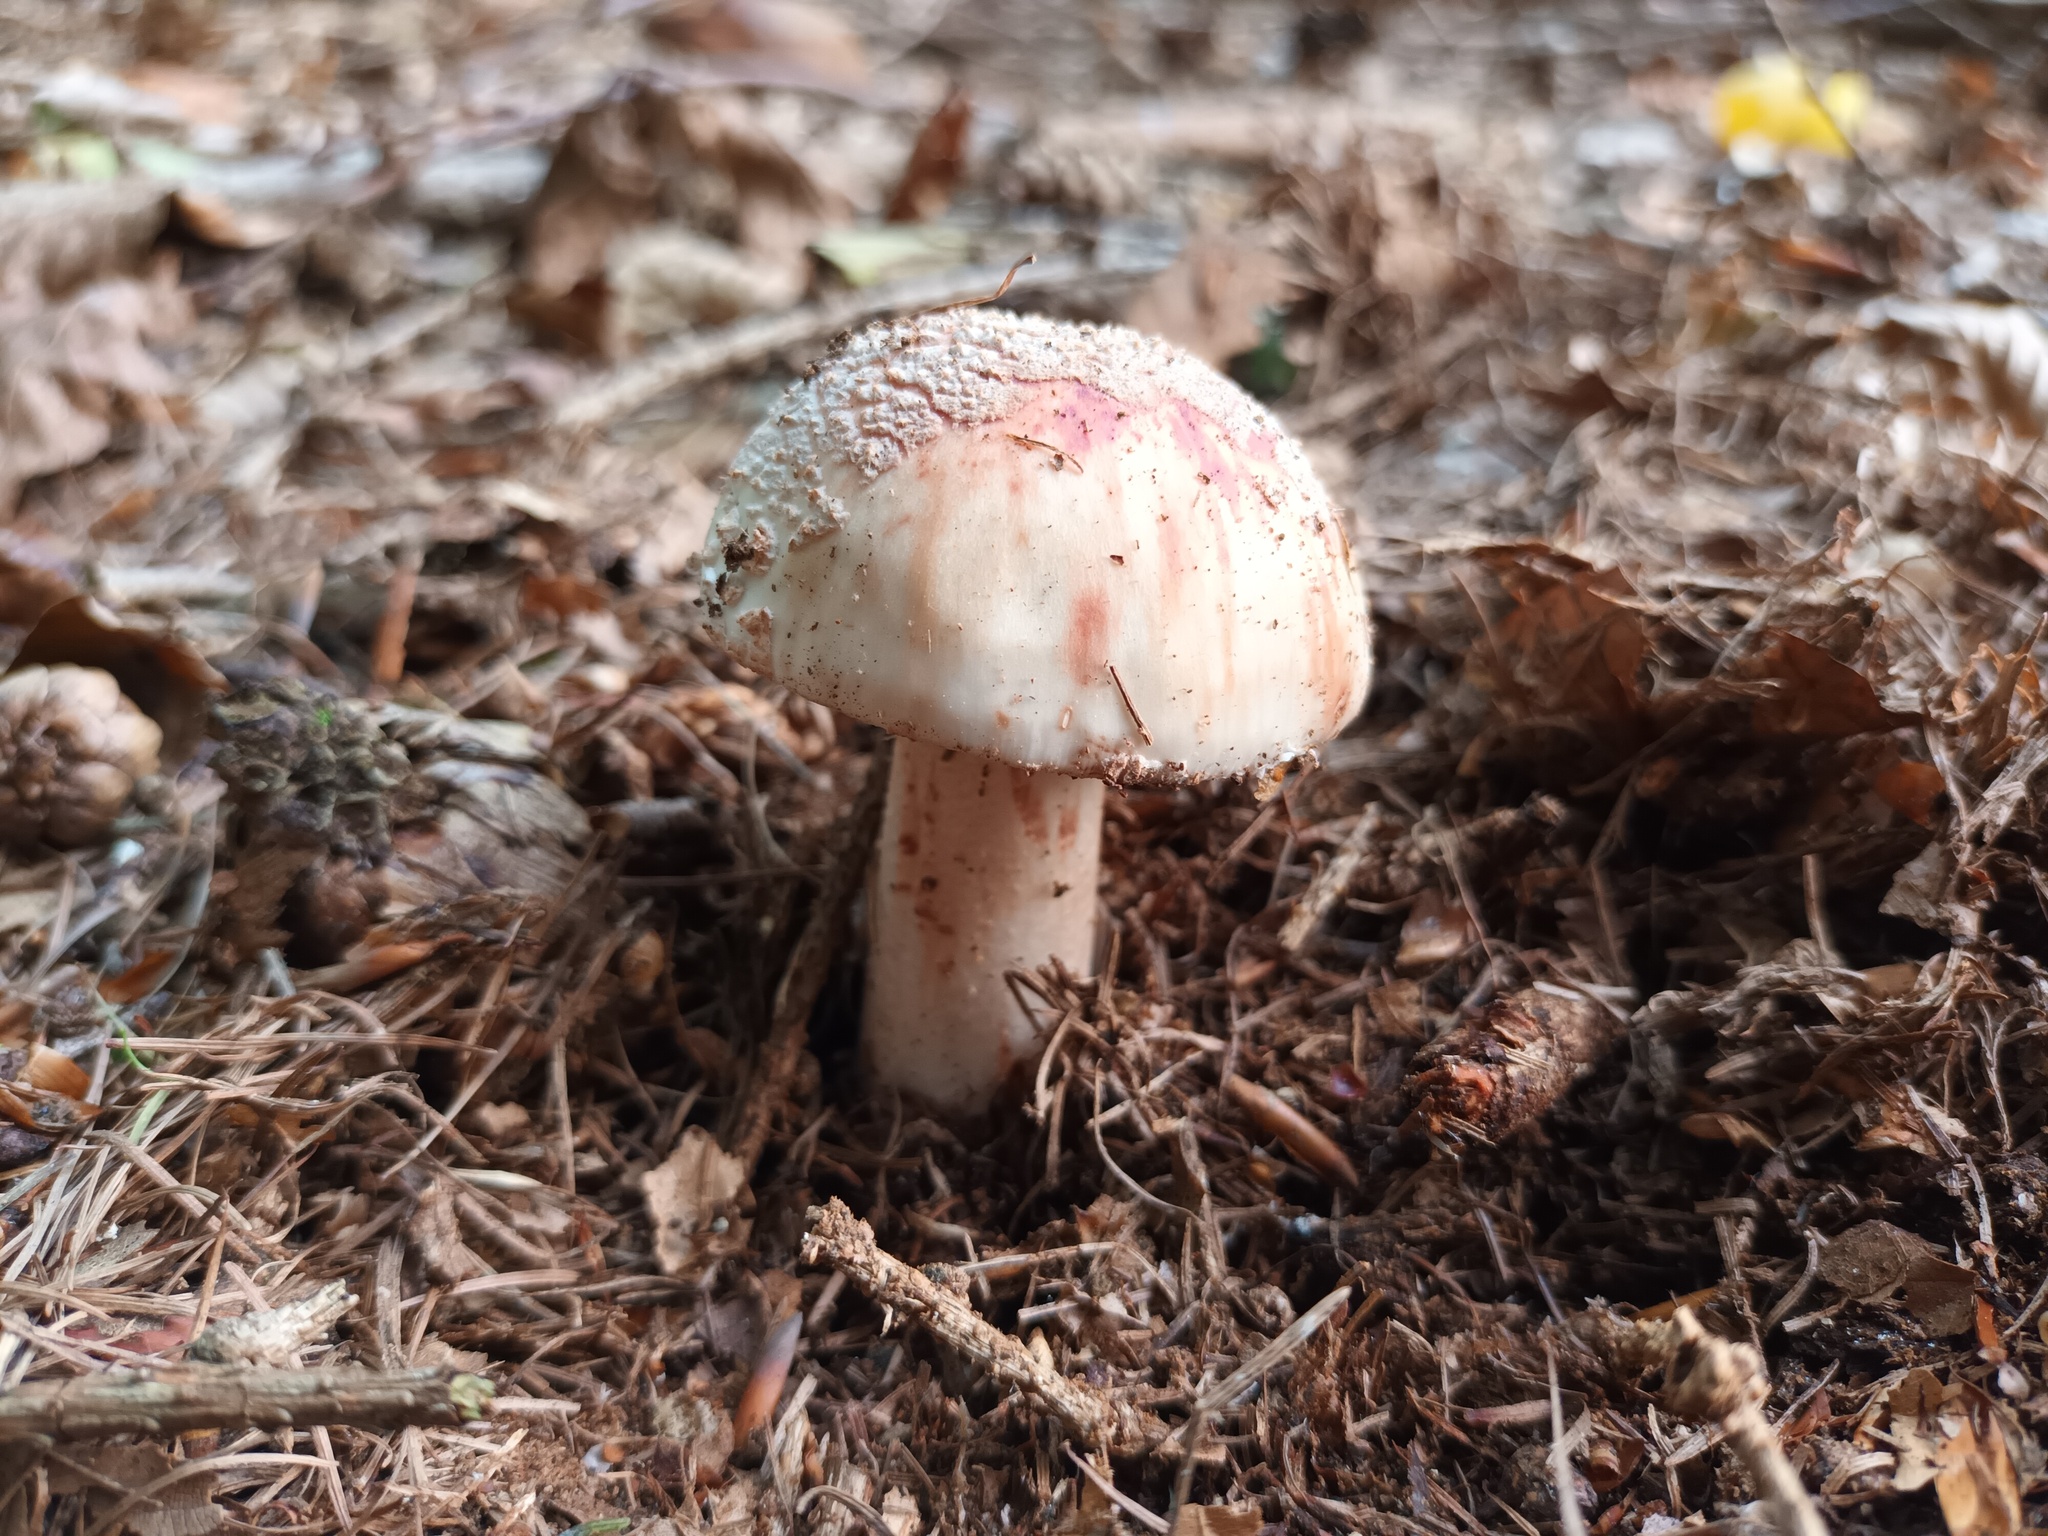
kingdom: Fungi
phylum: Basidiomycota
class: Agaricomycetes
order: Agaricales
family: Amanitaceae
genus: Amanita
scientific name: Amanita rubescens
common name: Blusher
